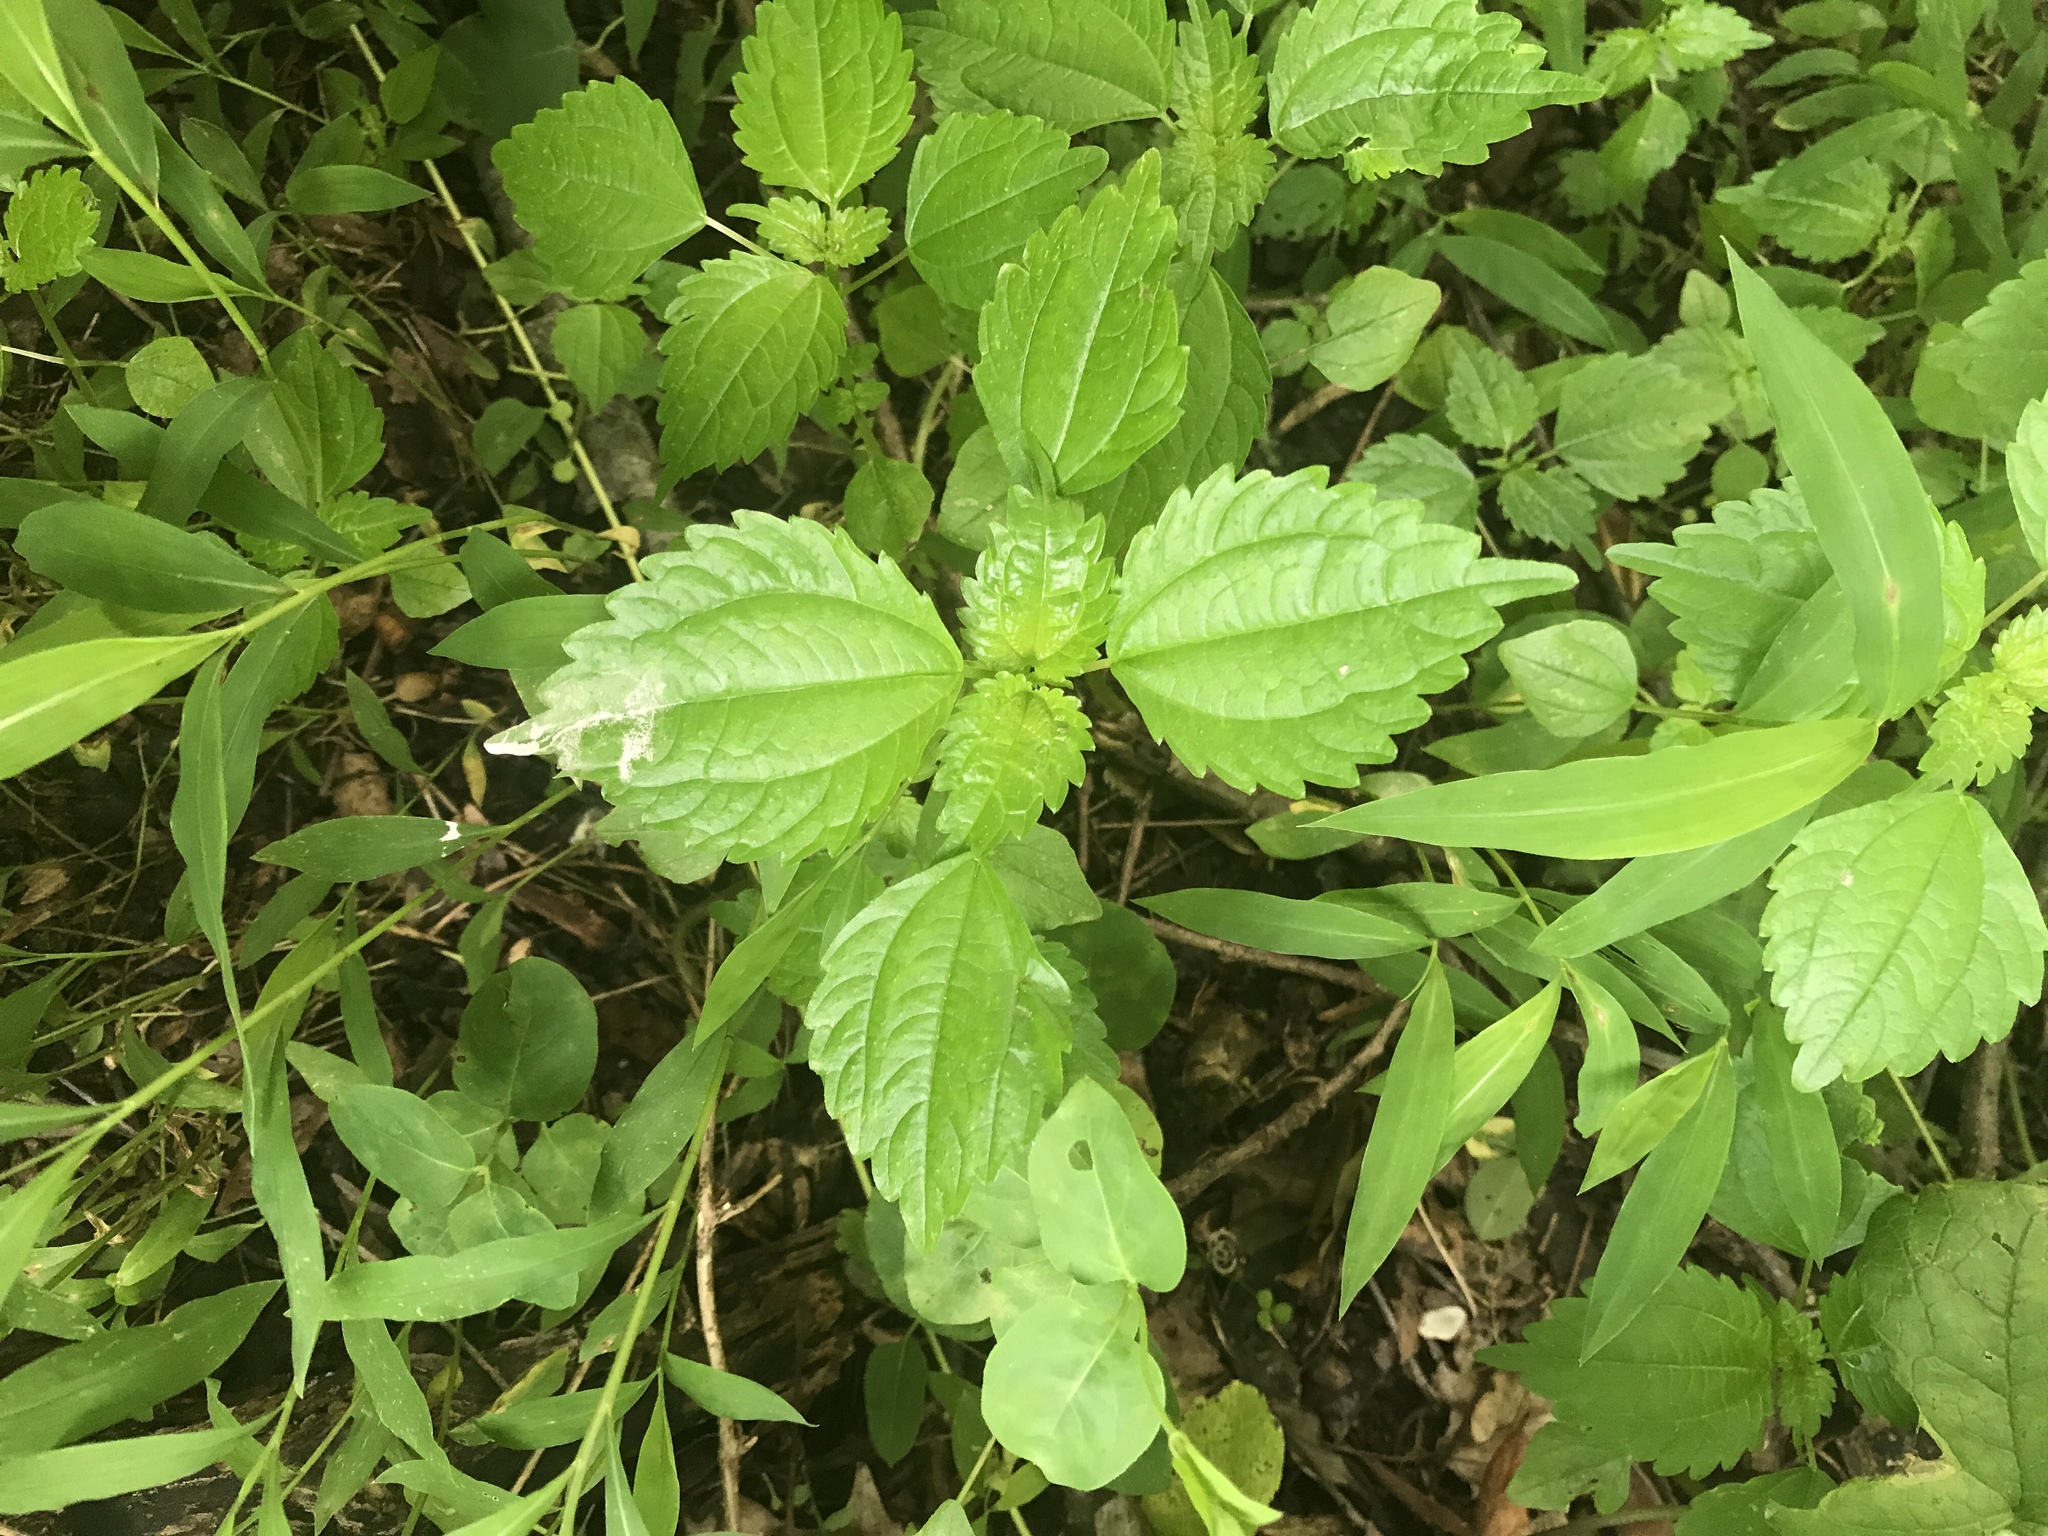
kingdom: Plantae
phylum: Tracheophyta
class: Magnoliopsida
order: Rosales
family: Urticaceae
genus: Pilea
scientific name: Pilea pumila
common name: Clearweed
